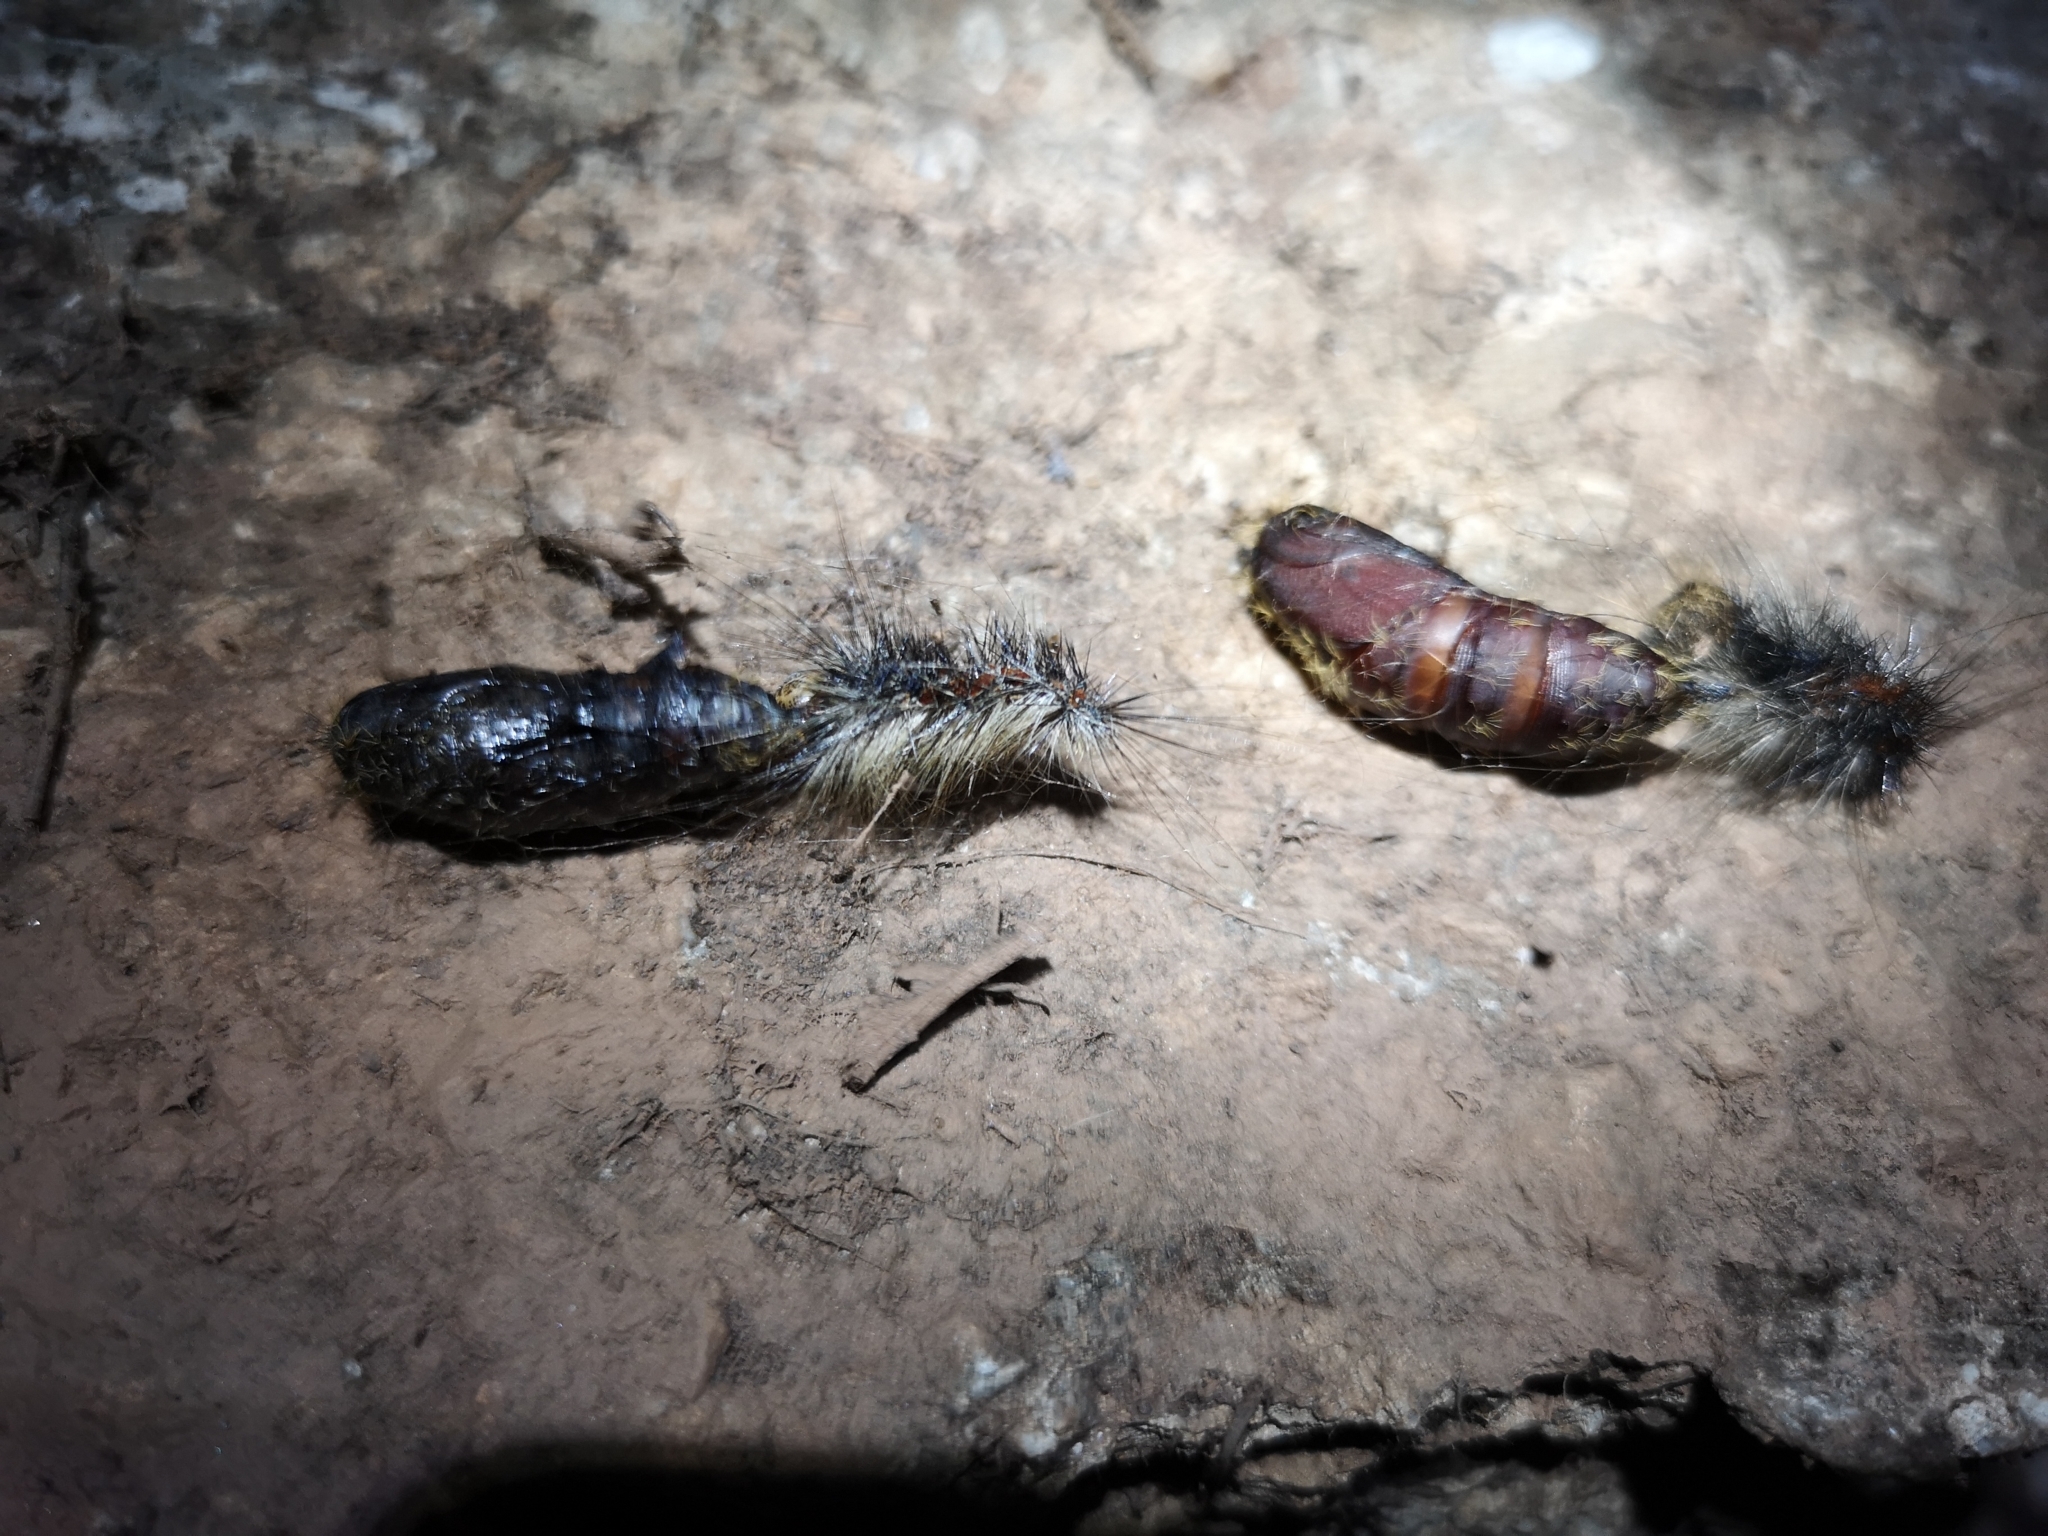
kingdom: Animalia
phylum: Arthropoda
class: Insecta
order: Lepidoptera
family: Erebidae
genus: Lymantria
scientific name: Lymantria dispar
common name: Gypsy moth
